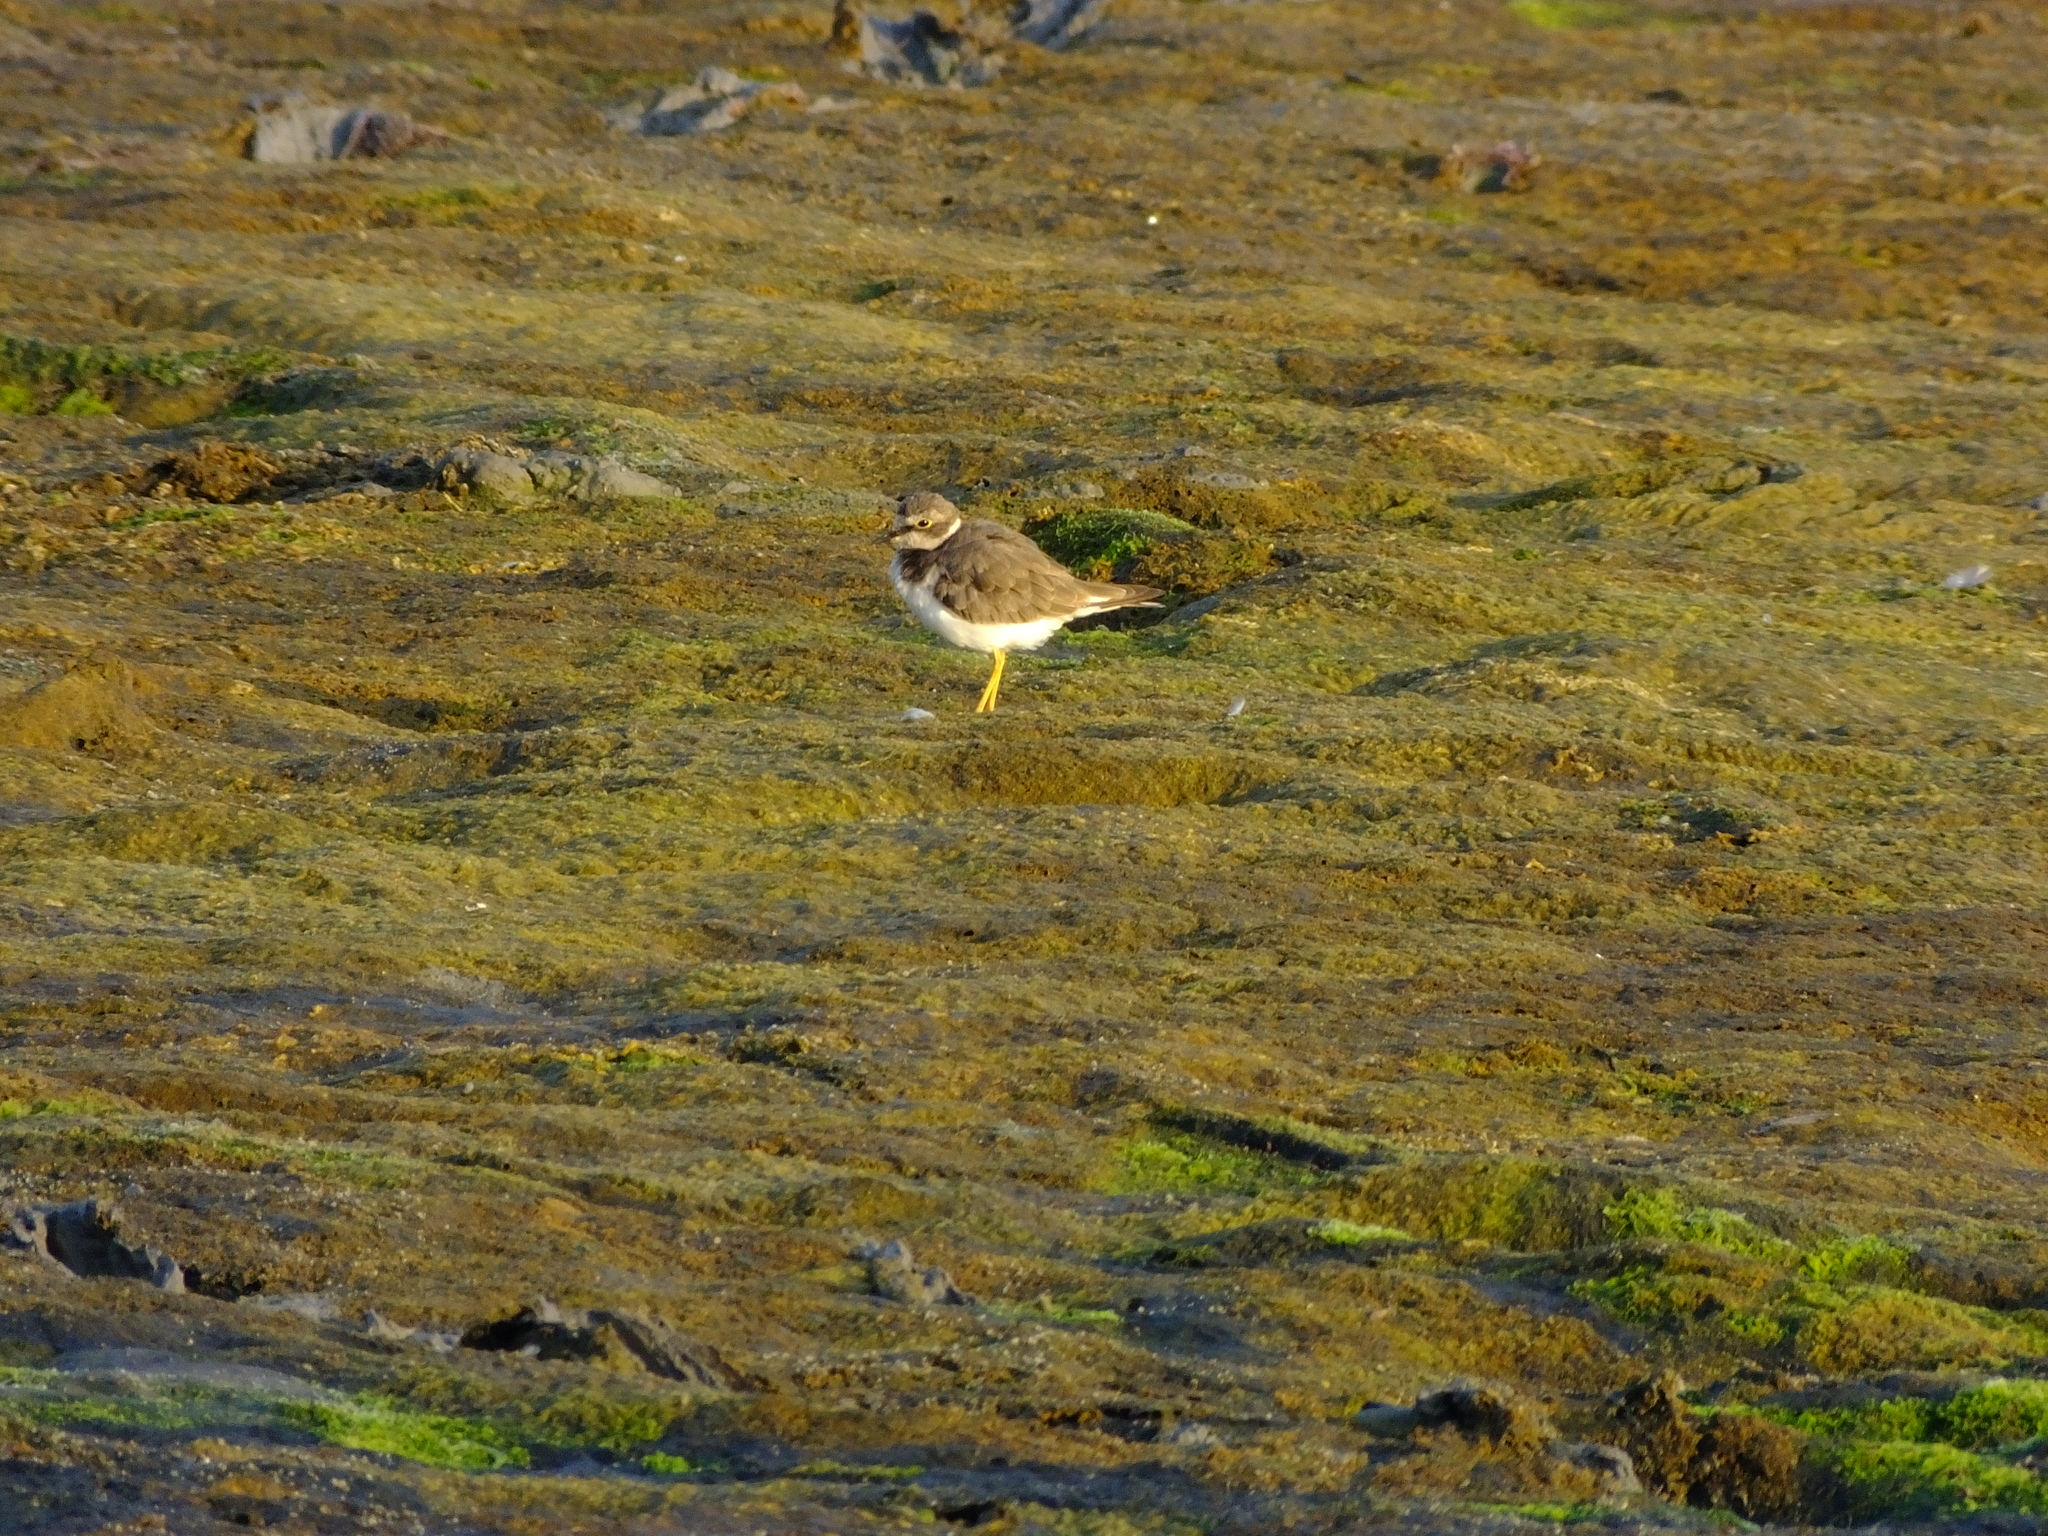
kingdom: Animalia
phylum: Chordata
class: Aves
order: Charadriiformes
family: Charadriidae
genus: Charadrius
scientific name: Charadrius dubius
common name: Little ringed plover
